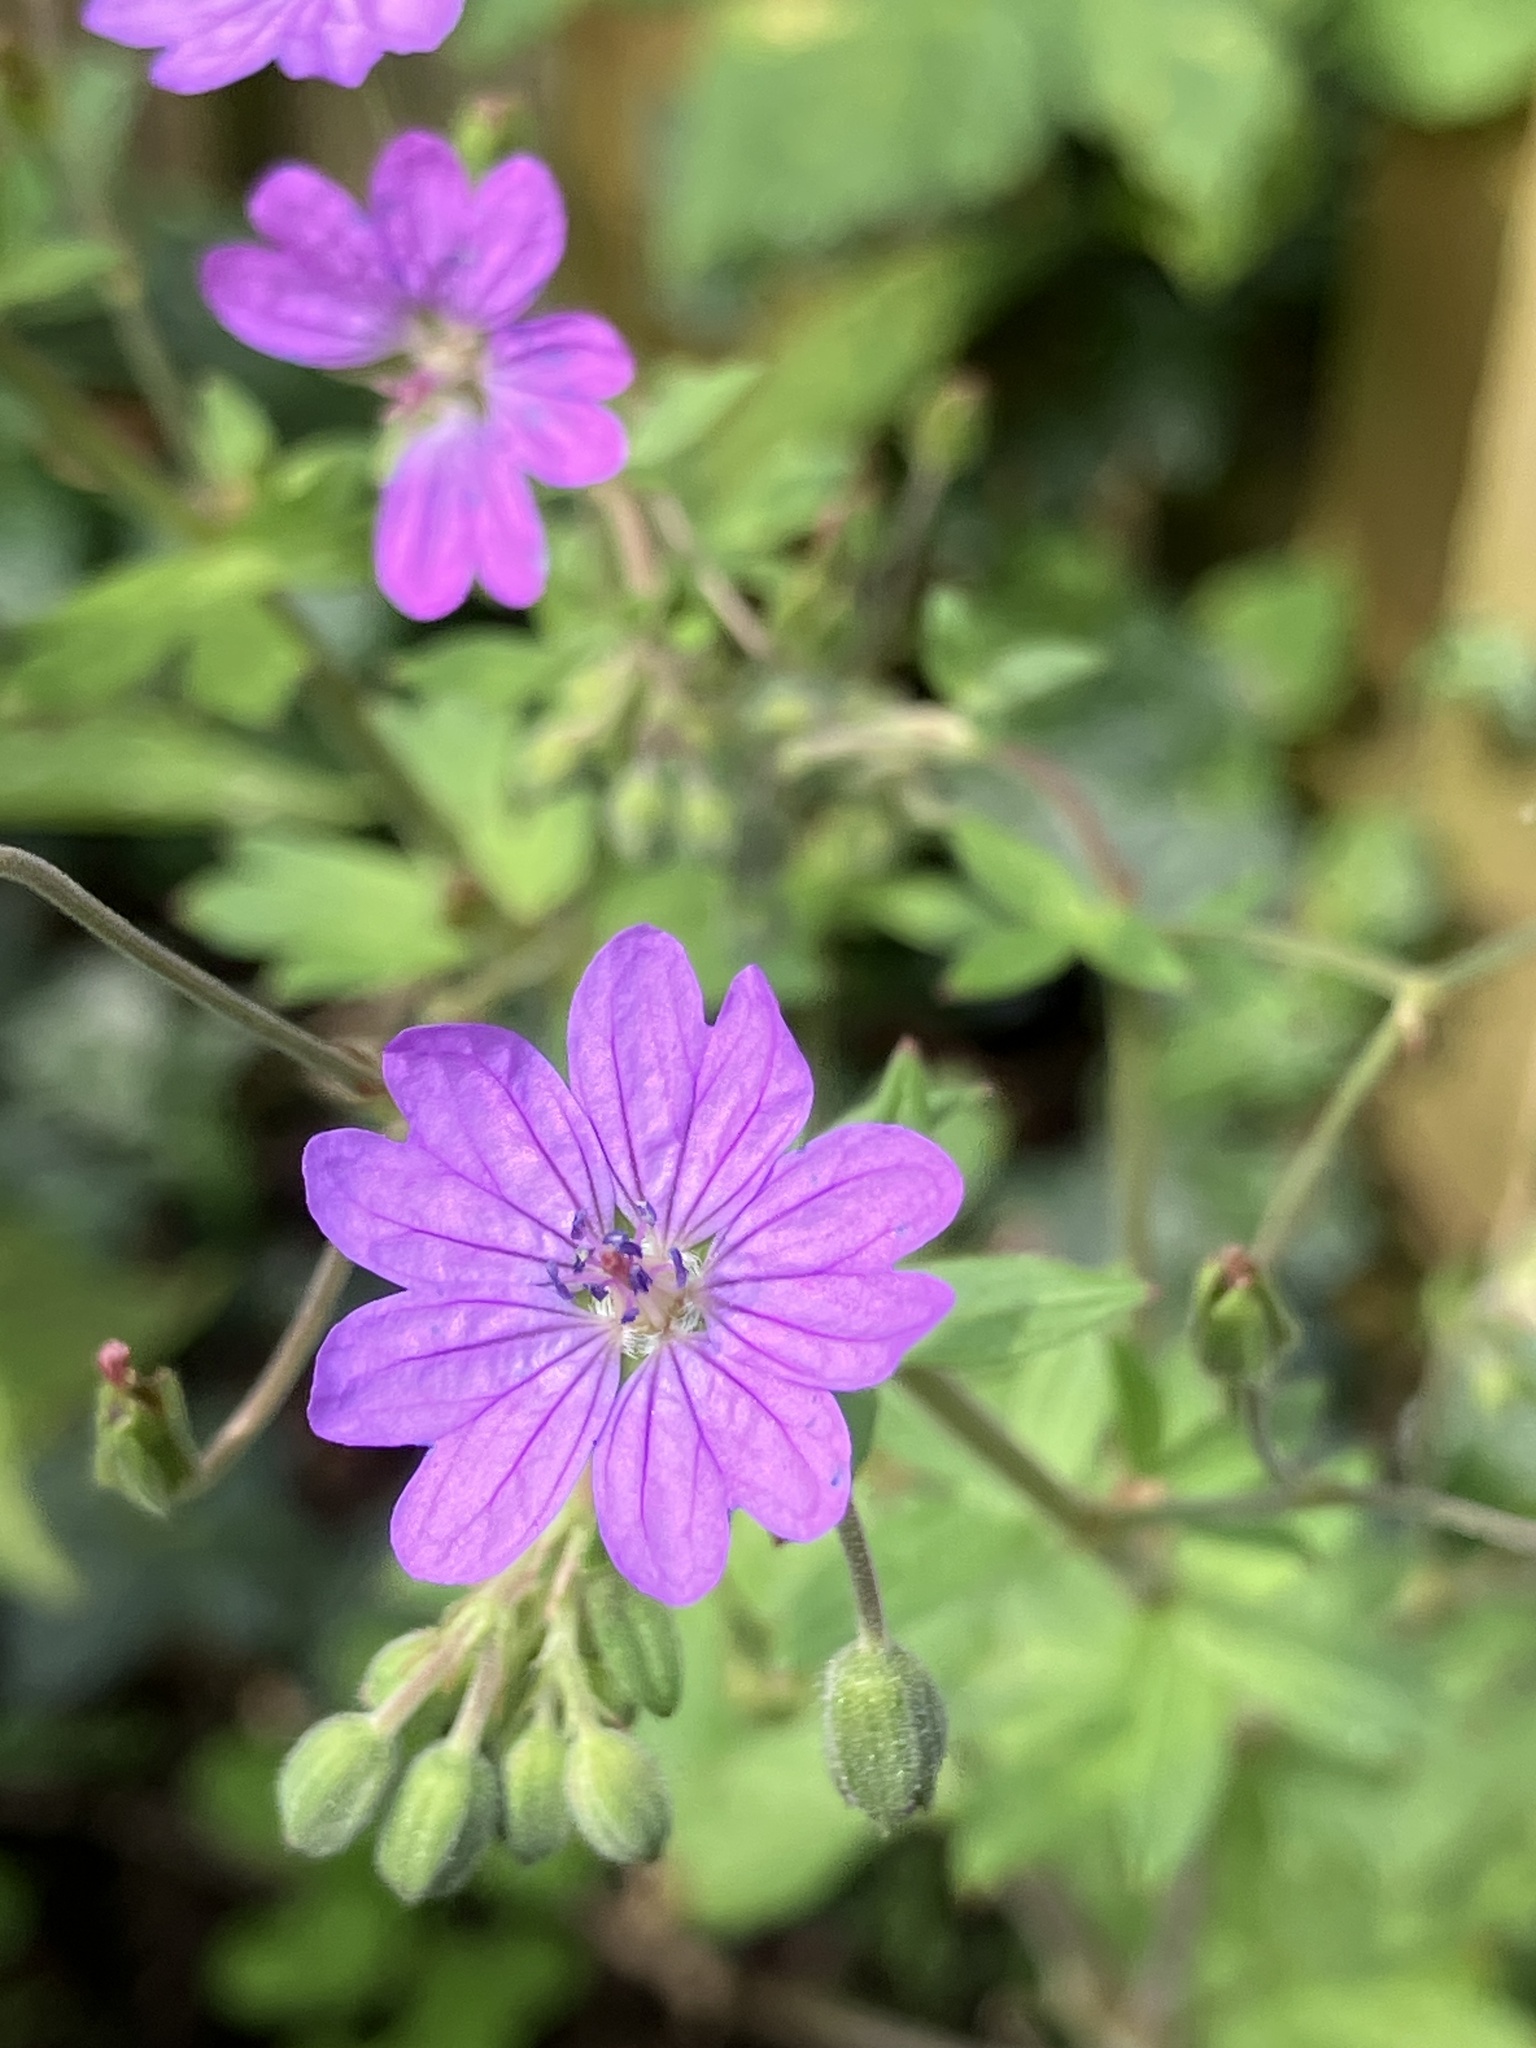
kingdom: Plantae
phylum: Tracheophyta
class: Magnoliopsida
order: Geraniales
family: Geraniaceae
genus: Geranium
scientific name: Geranium pyrenaicum
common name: Hedgerow crane's-bill
